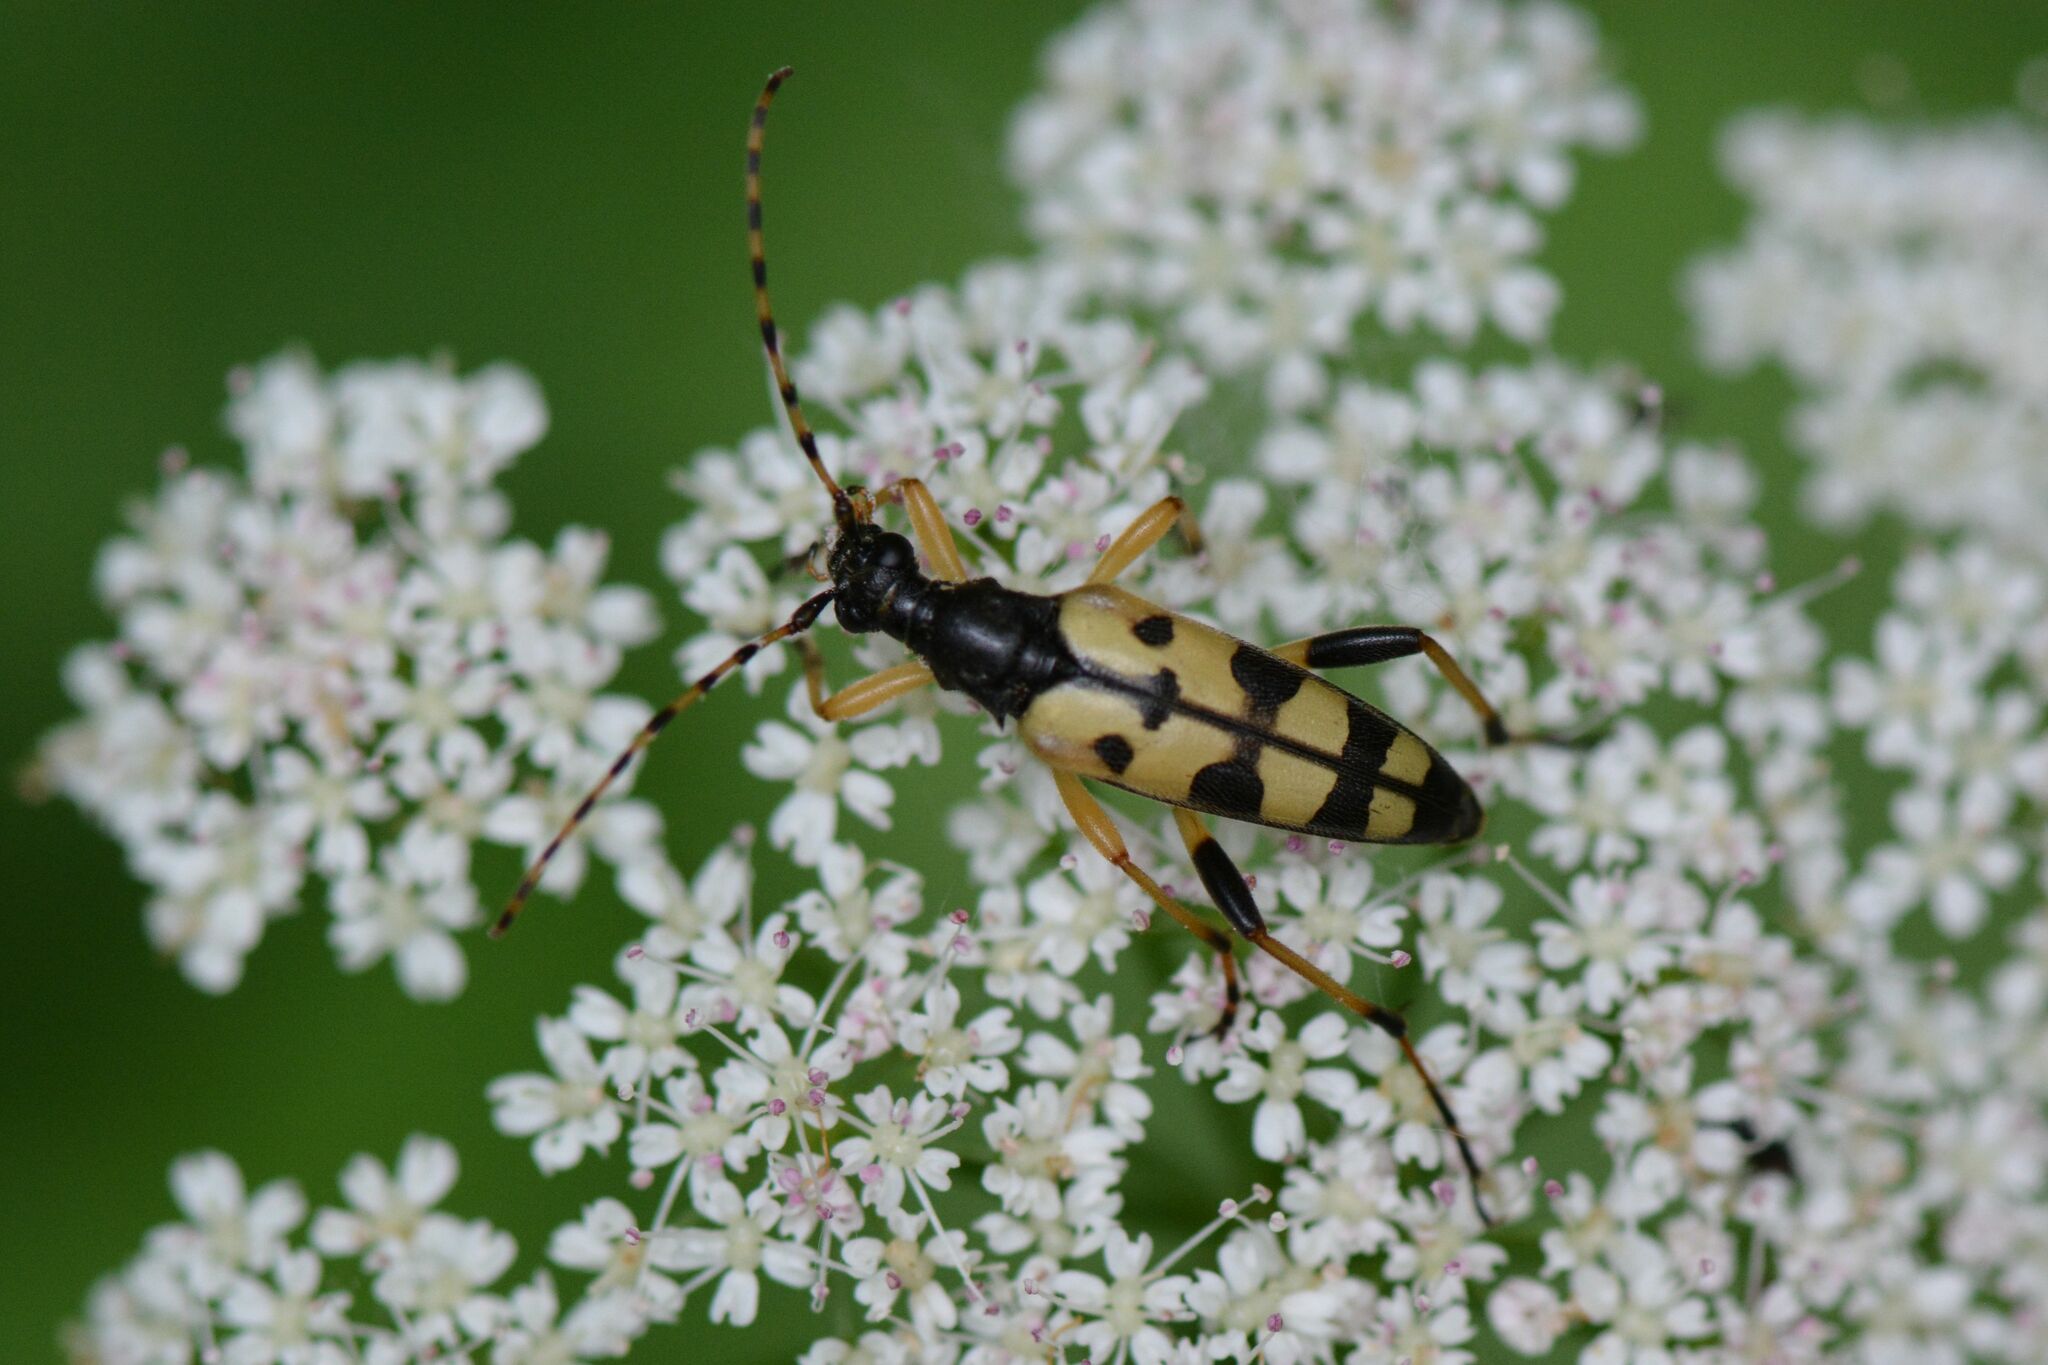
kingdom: Animalia
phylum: Arthropoda
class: Insecta
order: Coleoptera
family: Cerambycidae
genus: Rutpela
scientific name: Rutpela maculata
